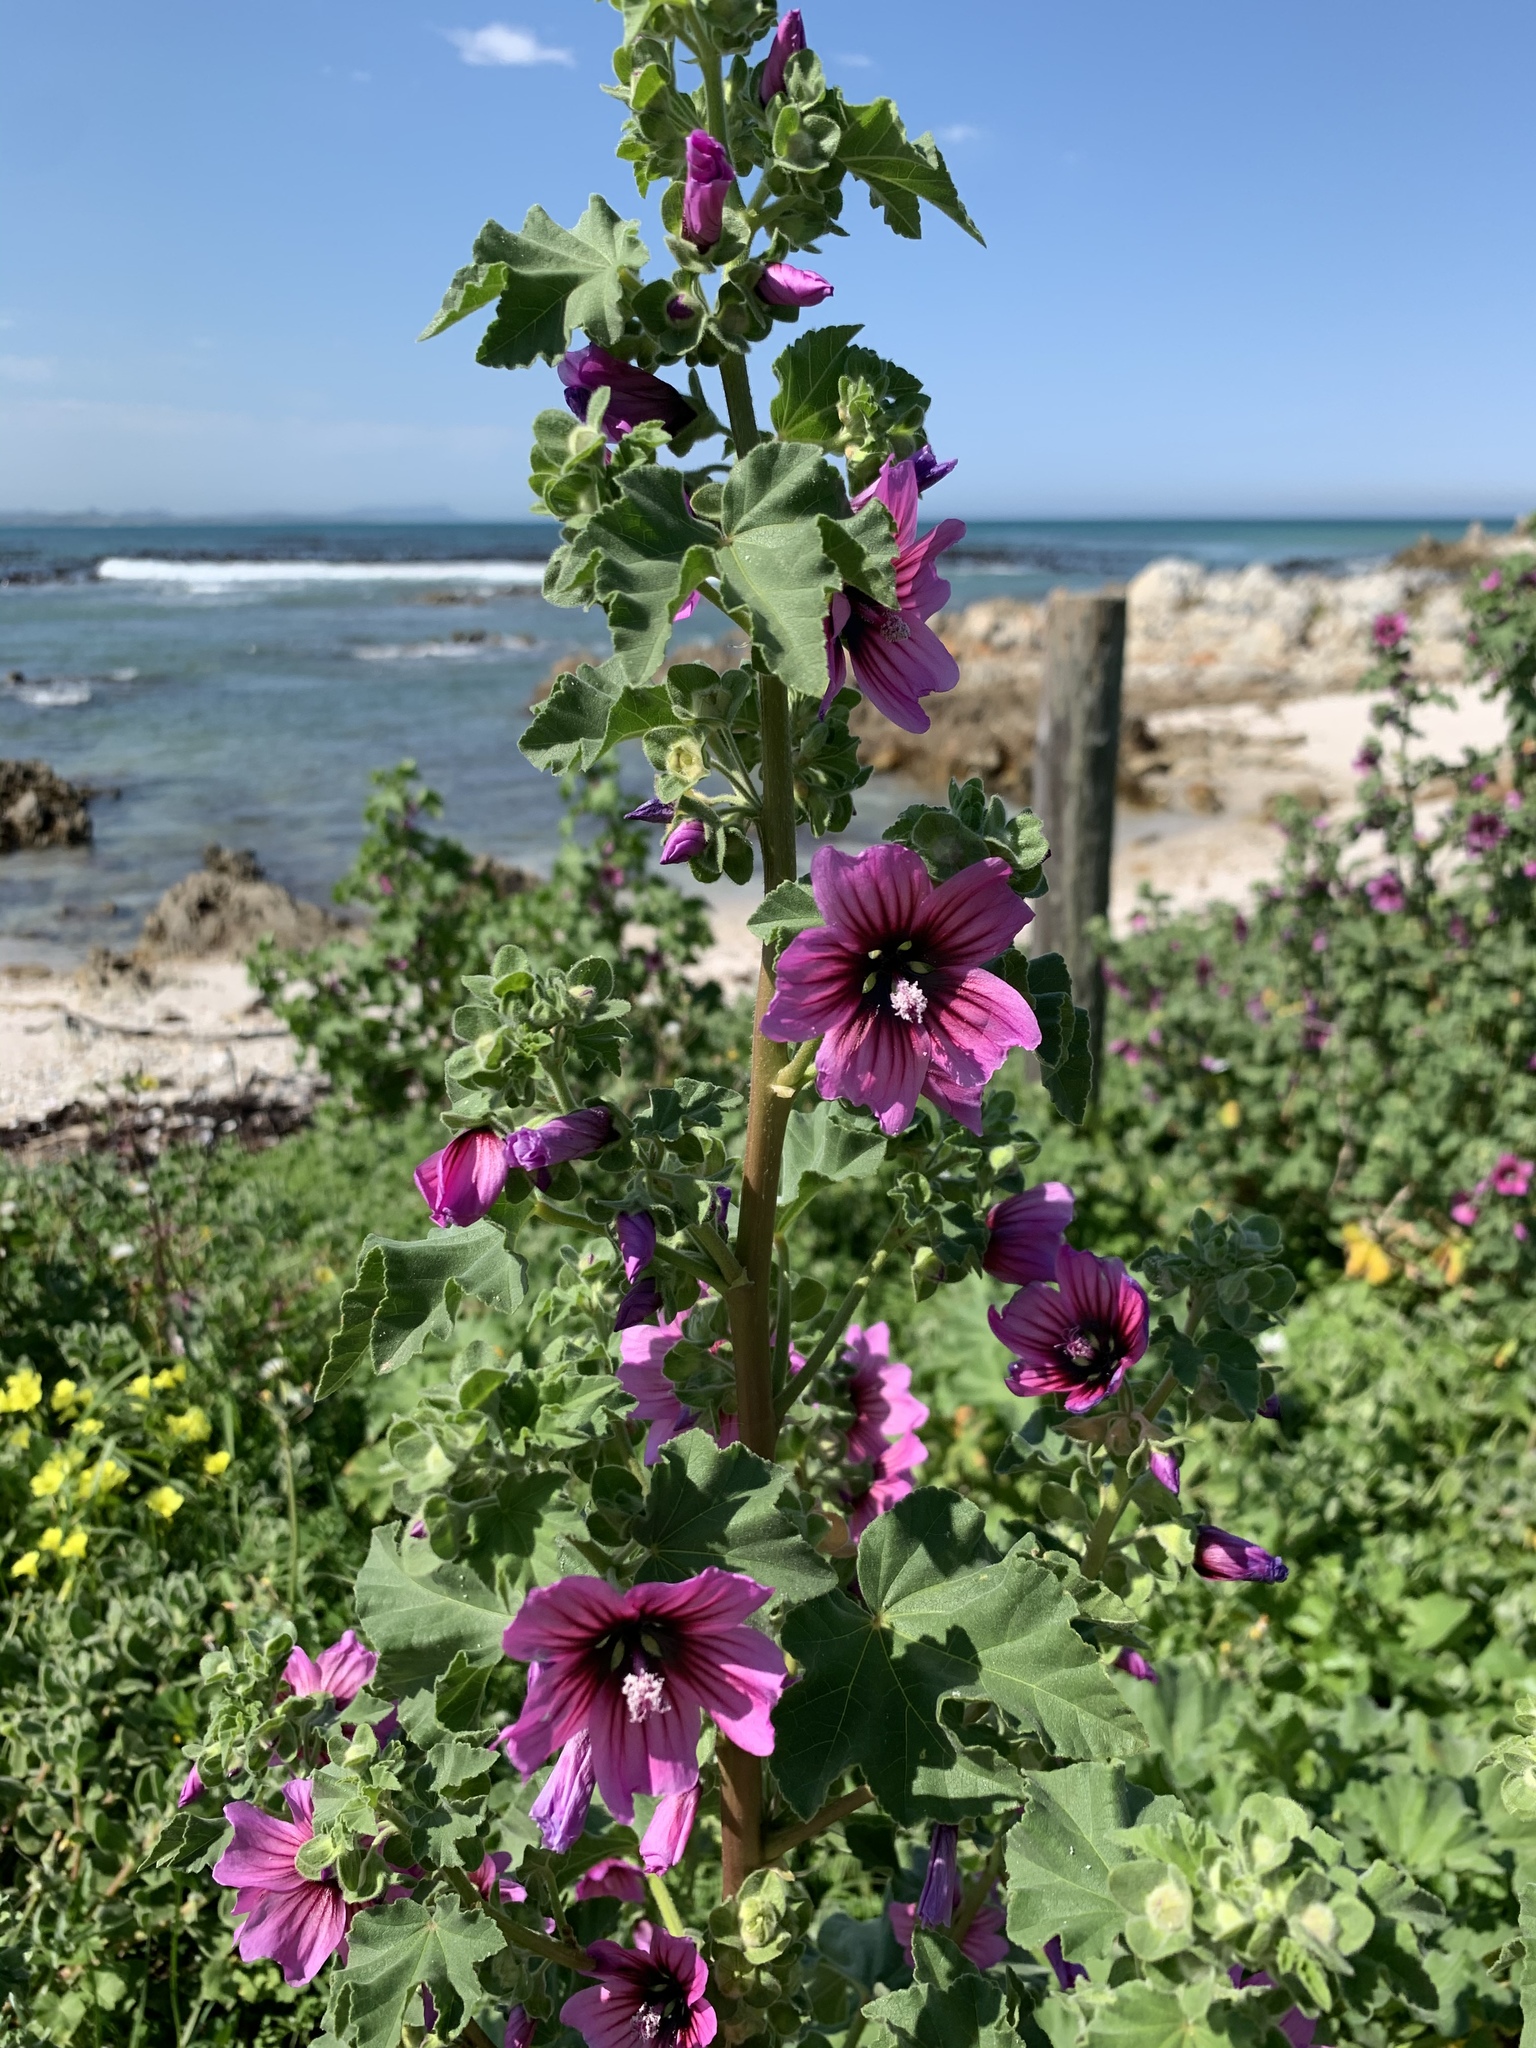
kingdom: Plantae
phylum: Tracheophyta
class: Magnoliopsida
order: Malvales
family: Malvaceae
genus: Malva
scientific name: Malva arborea
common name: Tree mallow
